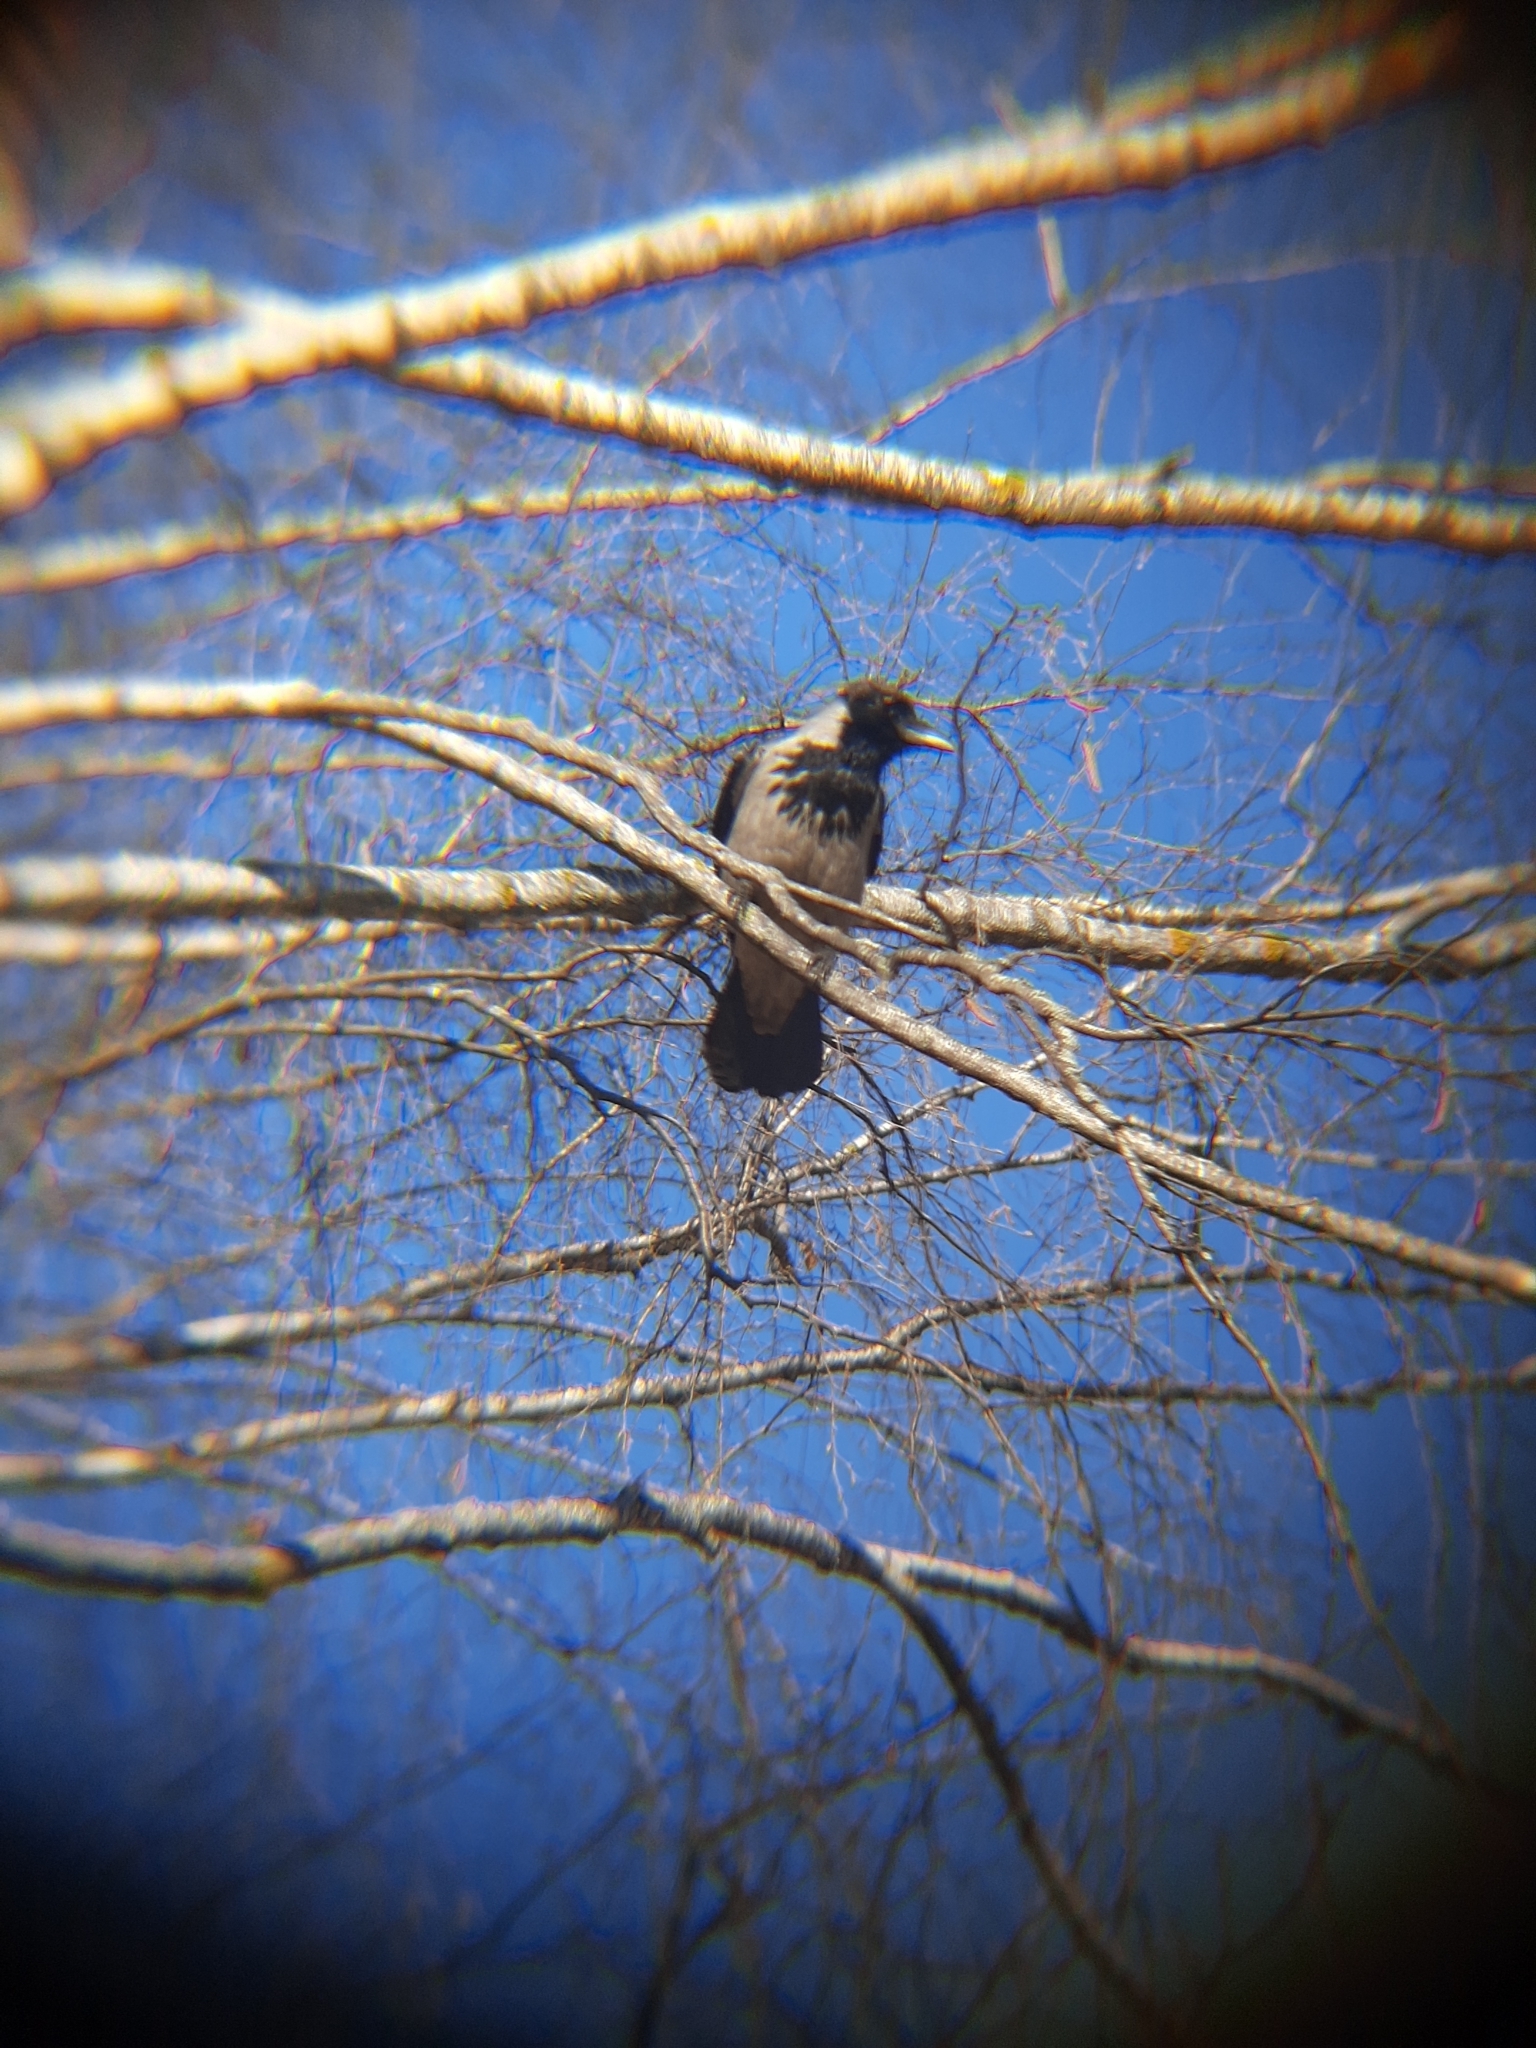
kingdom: Animalia
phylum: Chordata
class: Aves
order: Passeriformes
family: Corvidae
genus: Corvus
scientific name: Corvus cornix
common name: Hooded crow
